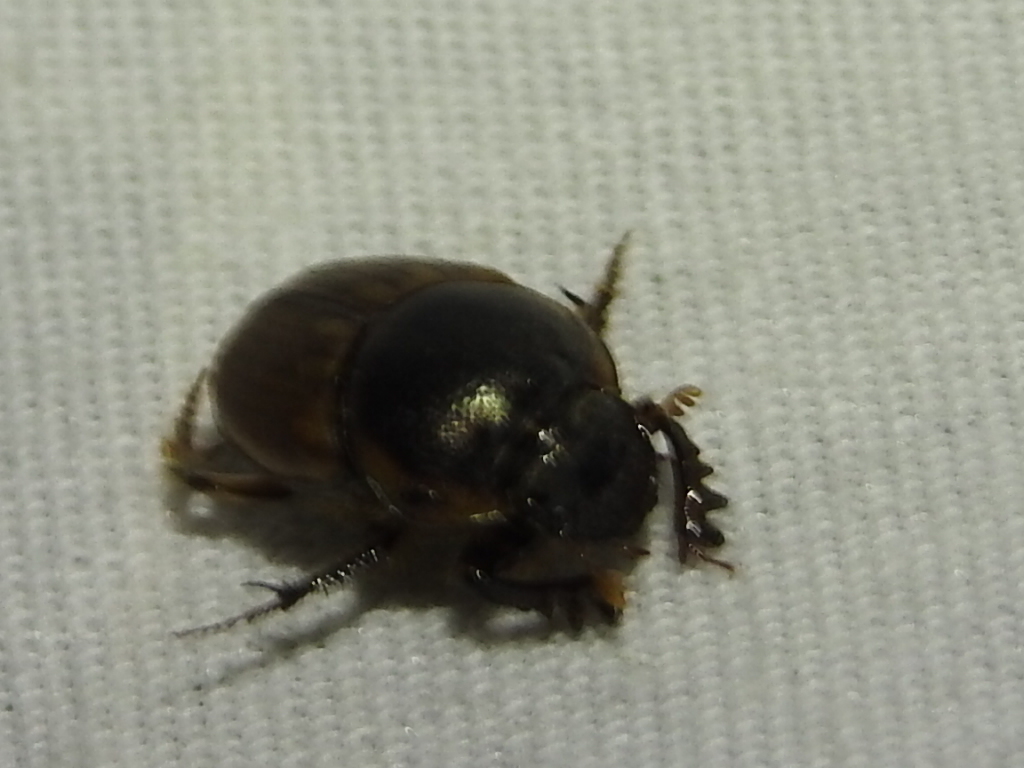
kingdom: Animalia
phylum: Arthropoda
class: Insecta
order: Coleoptera
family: Scarabaeidae
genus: Digitonthophagus
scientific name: Digitonthophagus gazella
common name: Brown dung beetle
